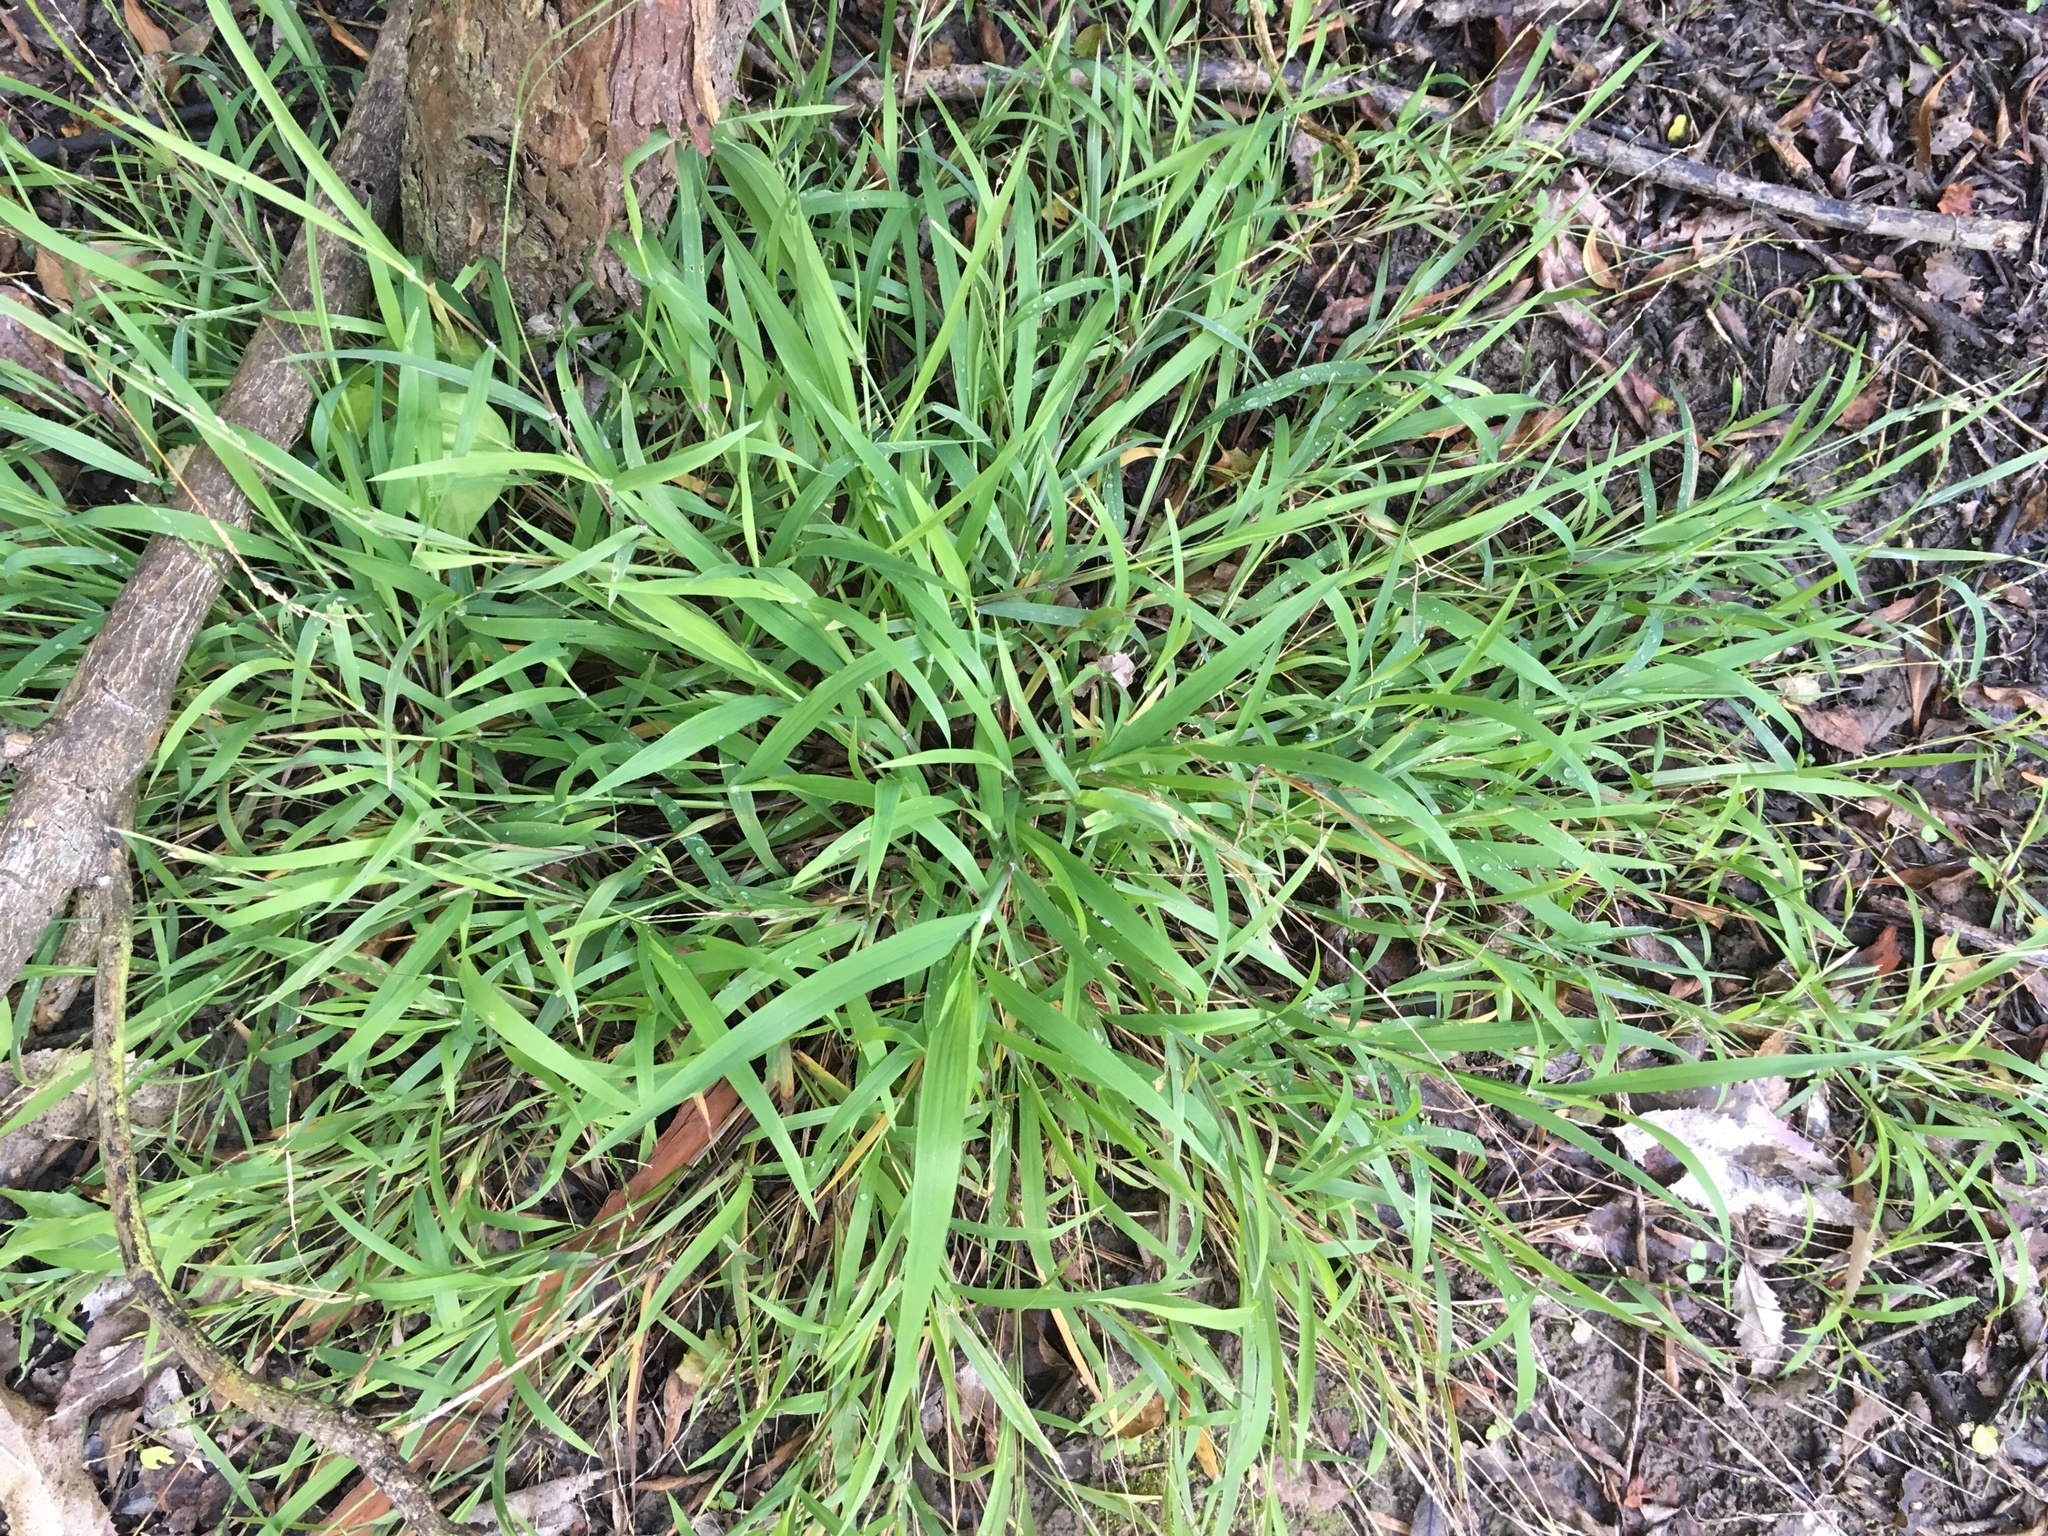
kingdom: Plantae
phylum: Tracheophyta
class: Liliopsida
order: Poales
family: Poaceae
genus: Ehrharta
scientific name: Ehrharta erecta
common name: Panic veldtgrass
